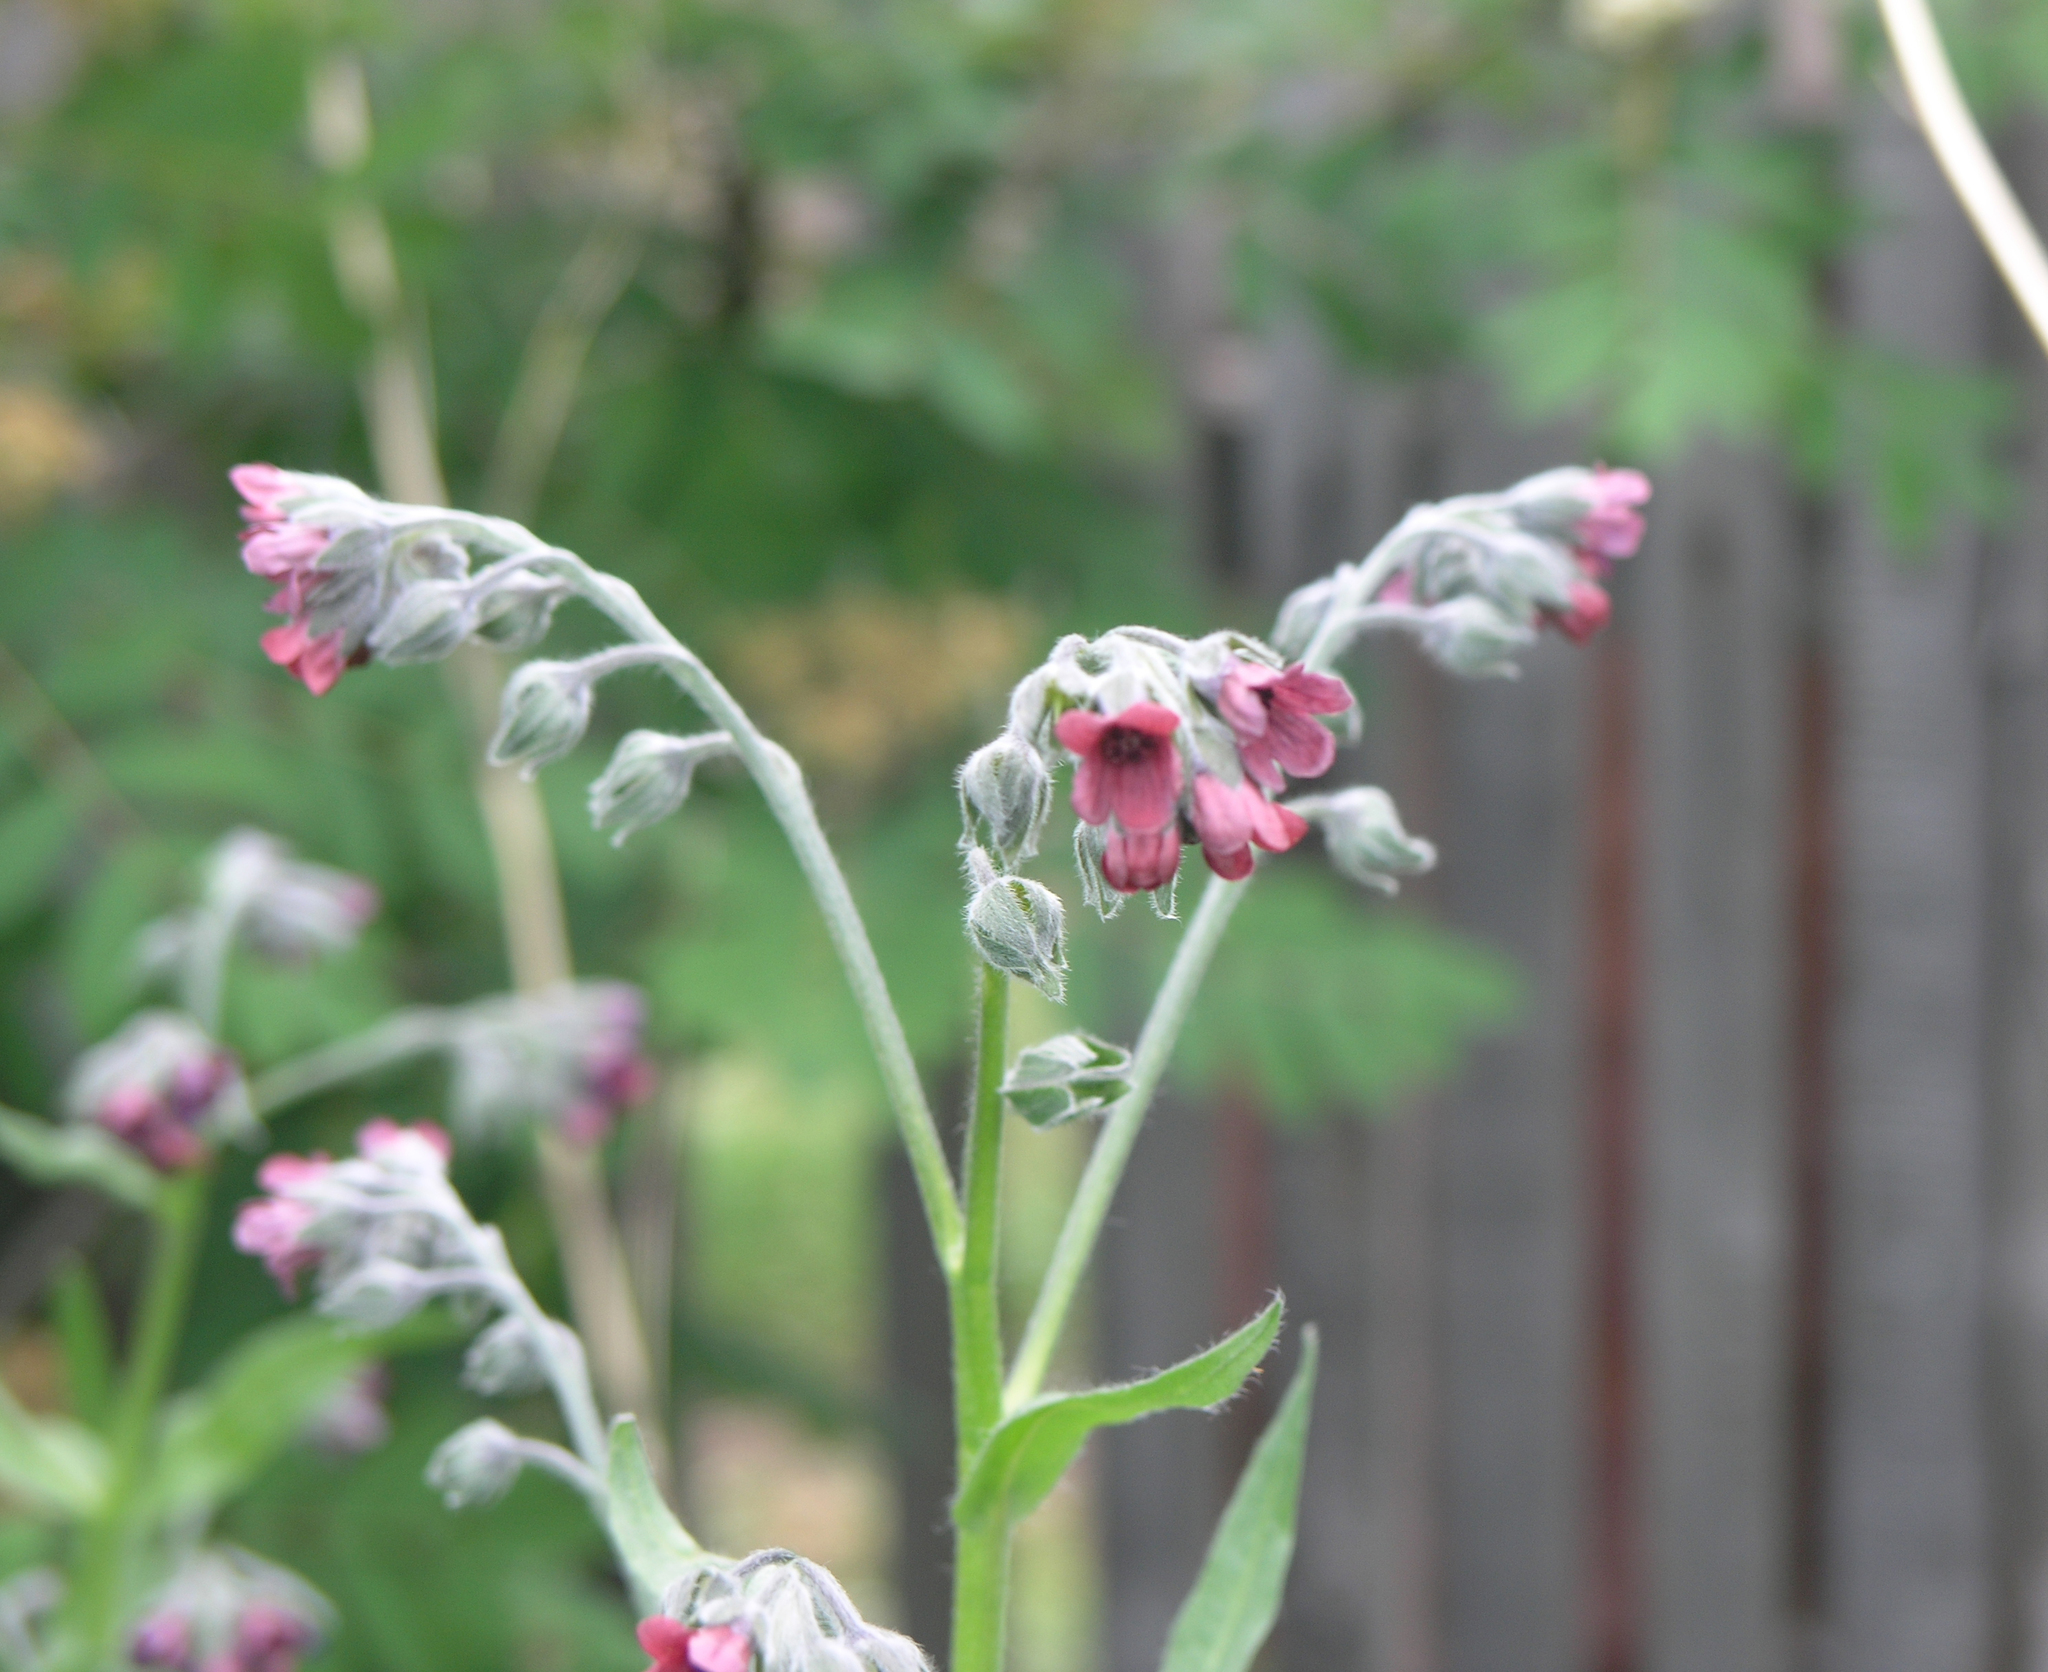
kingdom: Plantae
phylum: Tracheophyta
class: Magnoliopsida
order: Boraginales
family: Boraginaceae
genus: Cynoglossum
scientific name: Cynoglossum officinale
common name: Hound's-tongue
